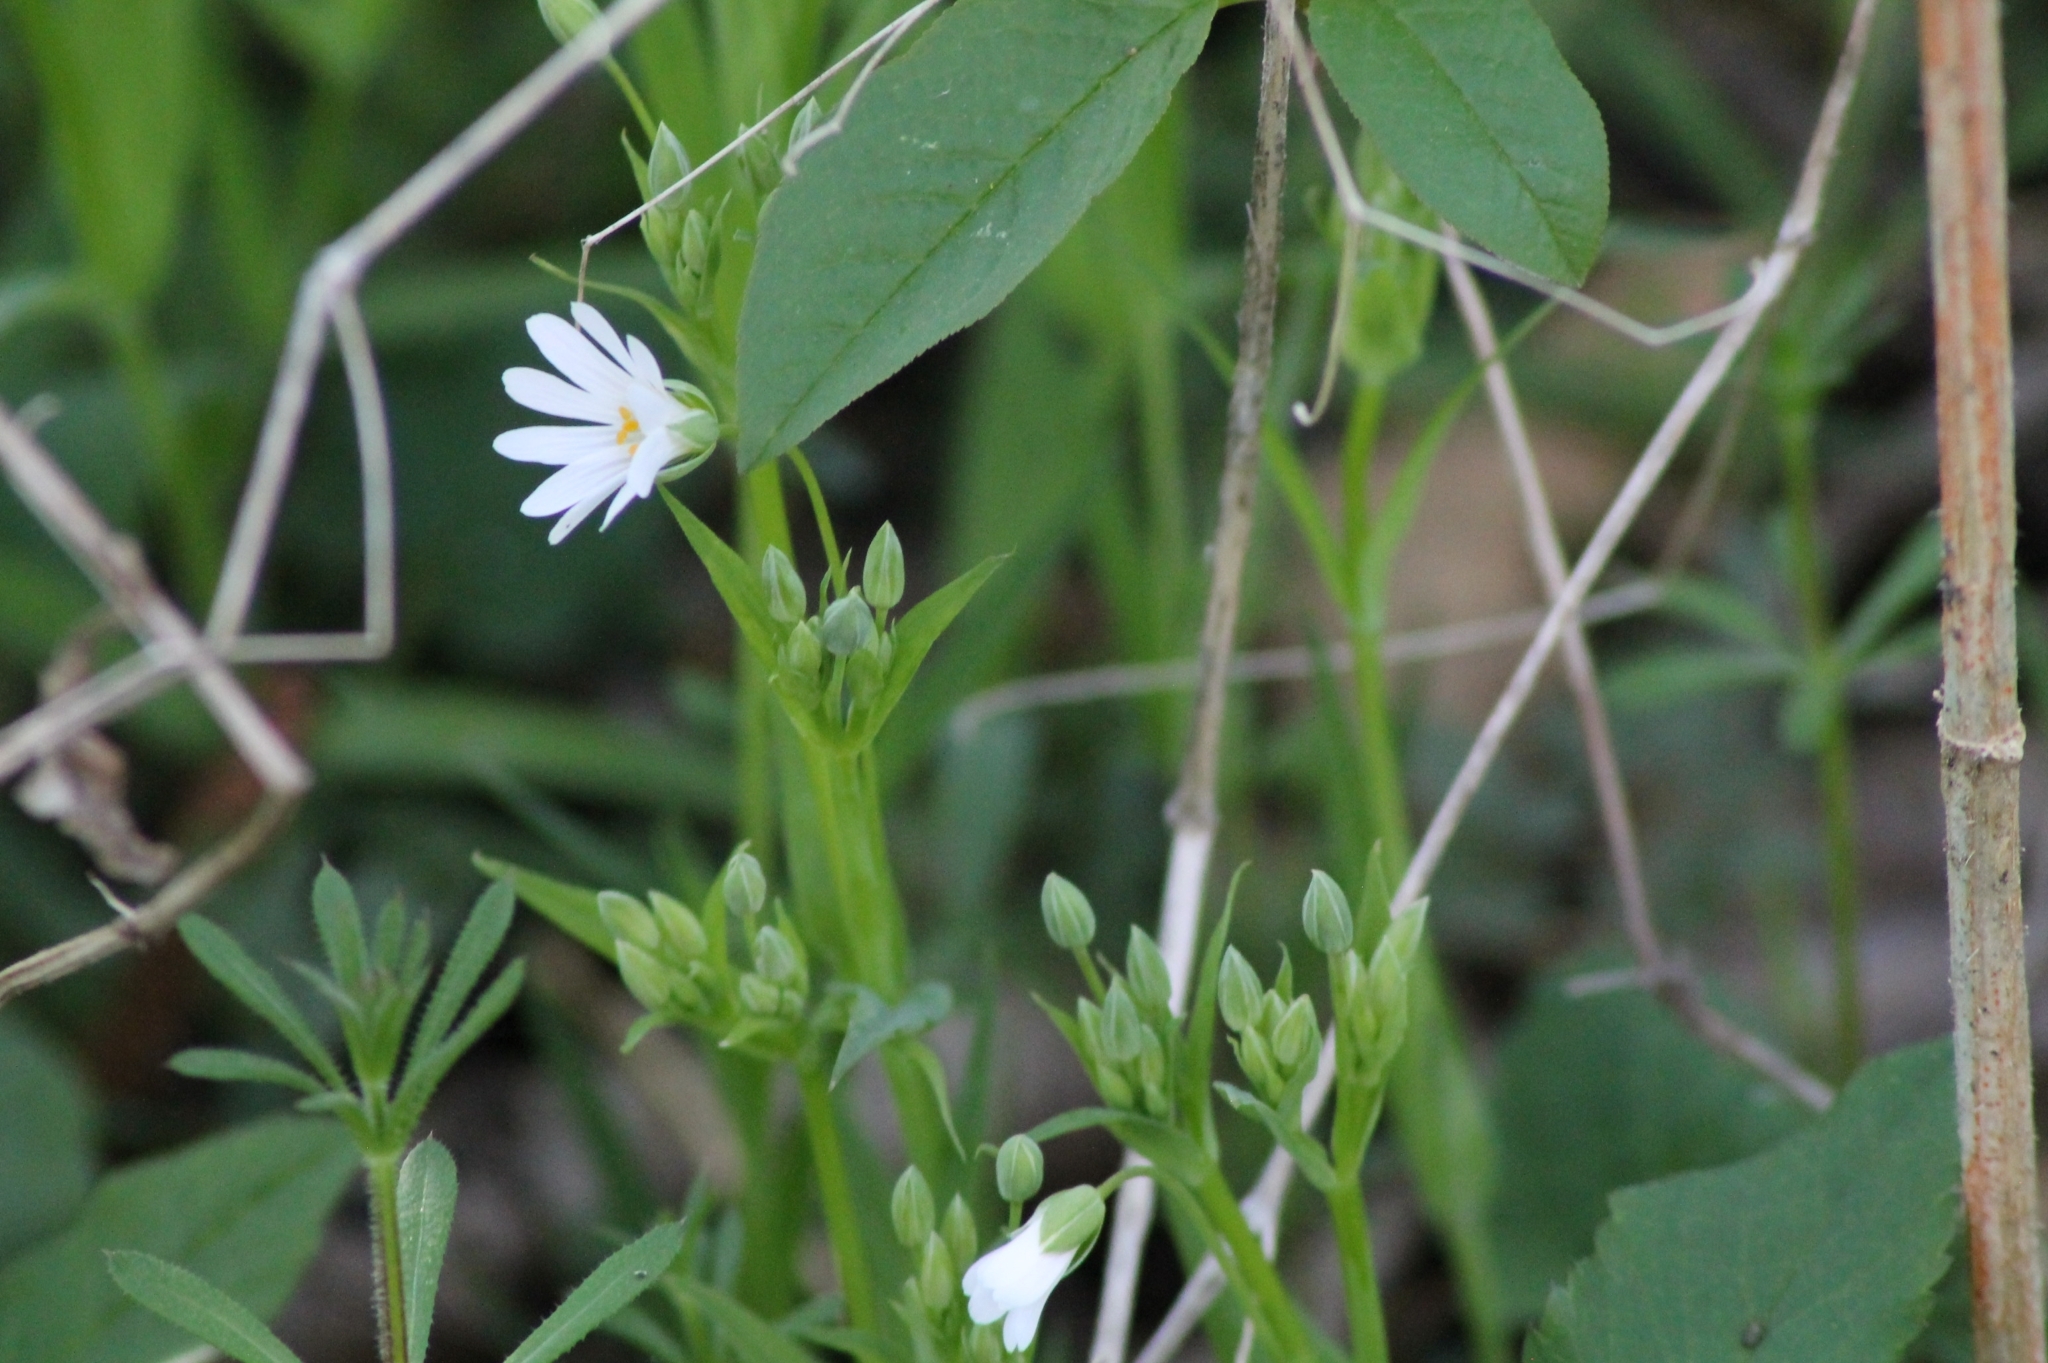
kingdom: Plantae
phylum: Tracheophyta
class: Magnoliopsida
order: Caryophyllales
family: Caryophyllaceae
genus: Rabelera
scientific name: Rabelera holostea
